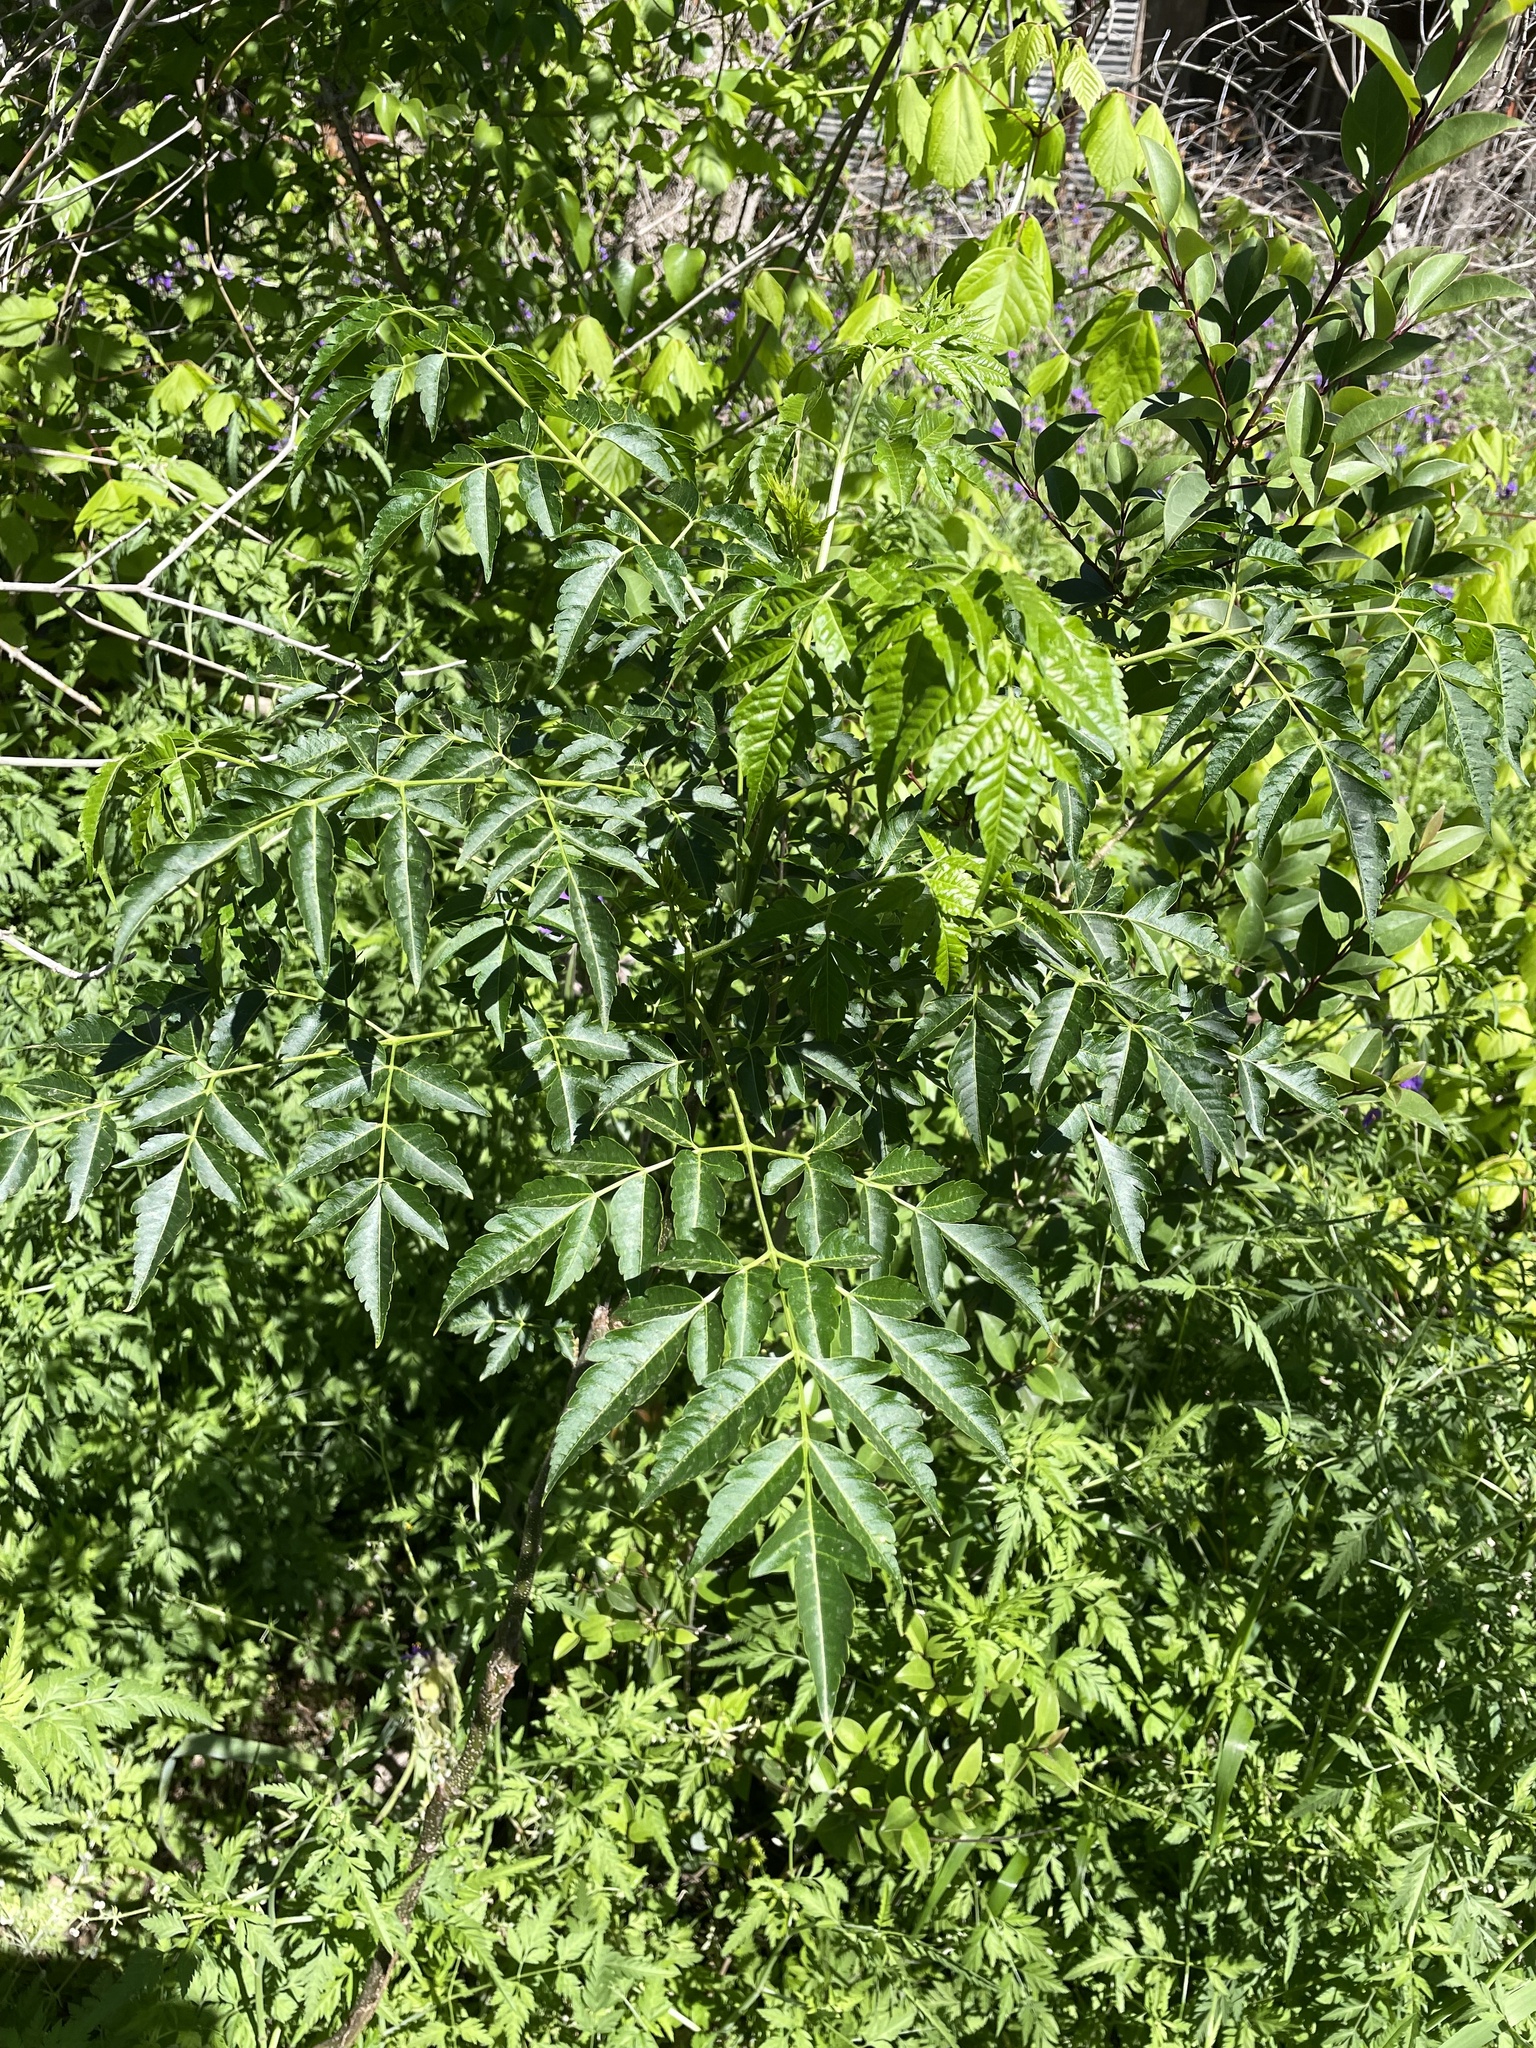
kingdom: Plantae
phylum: Tracheophyta
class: Magnoliopsida
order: Sapindales
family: Meliaceae
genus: Melia
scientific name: Melia azedarach
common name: Chinaberrytree
